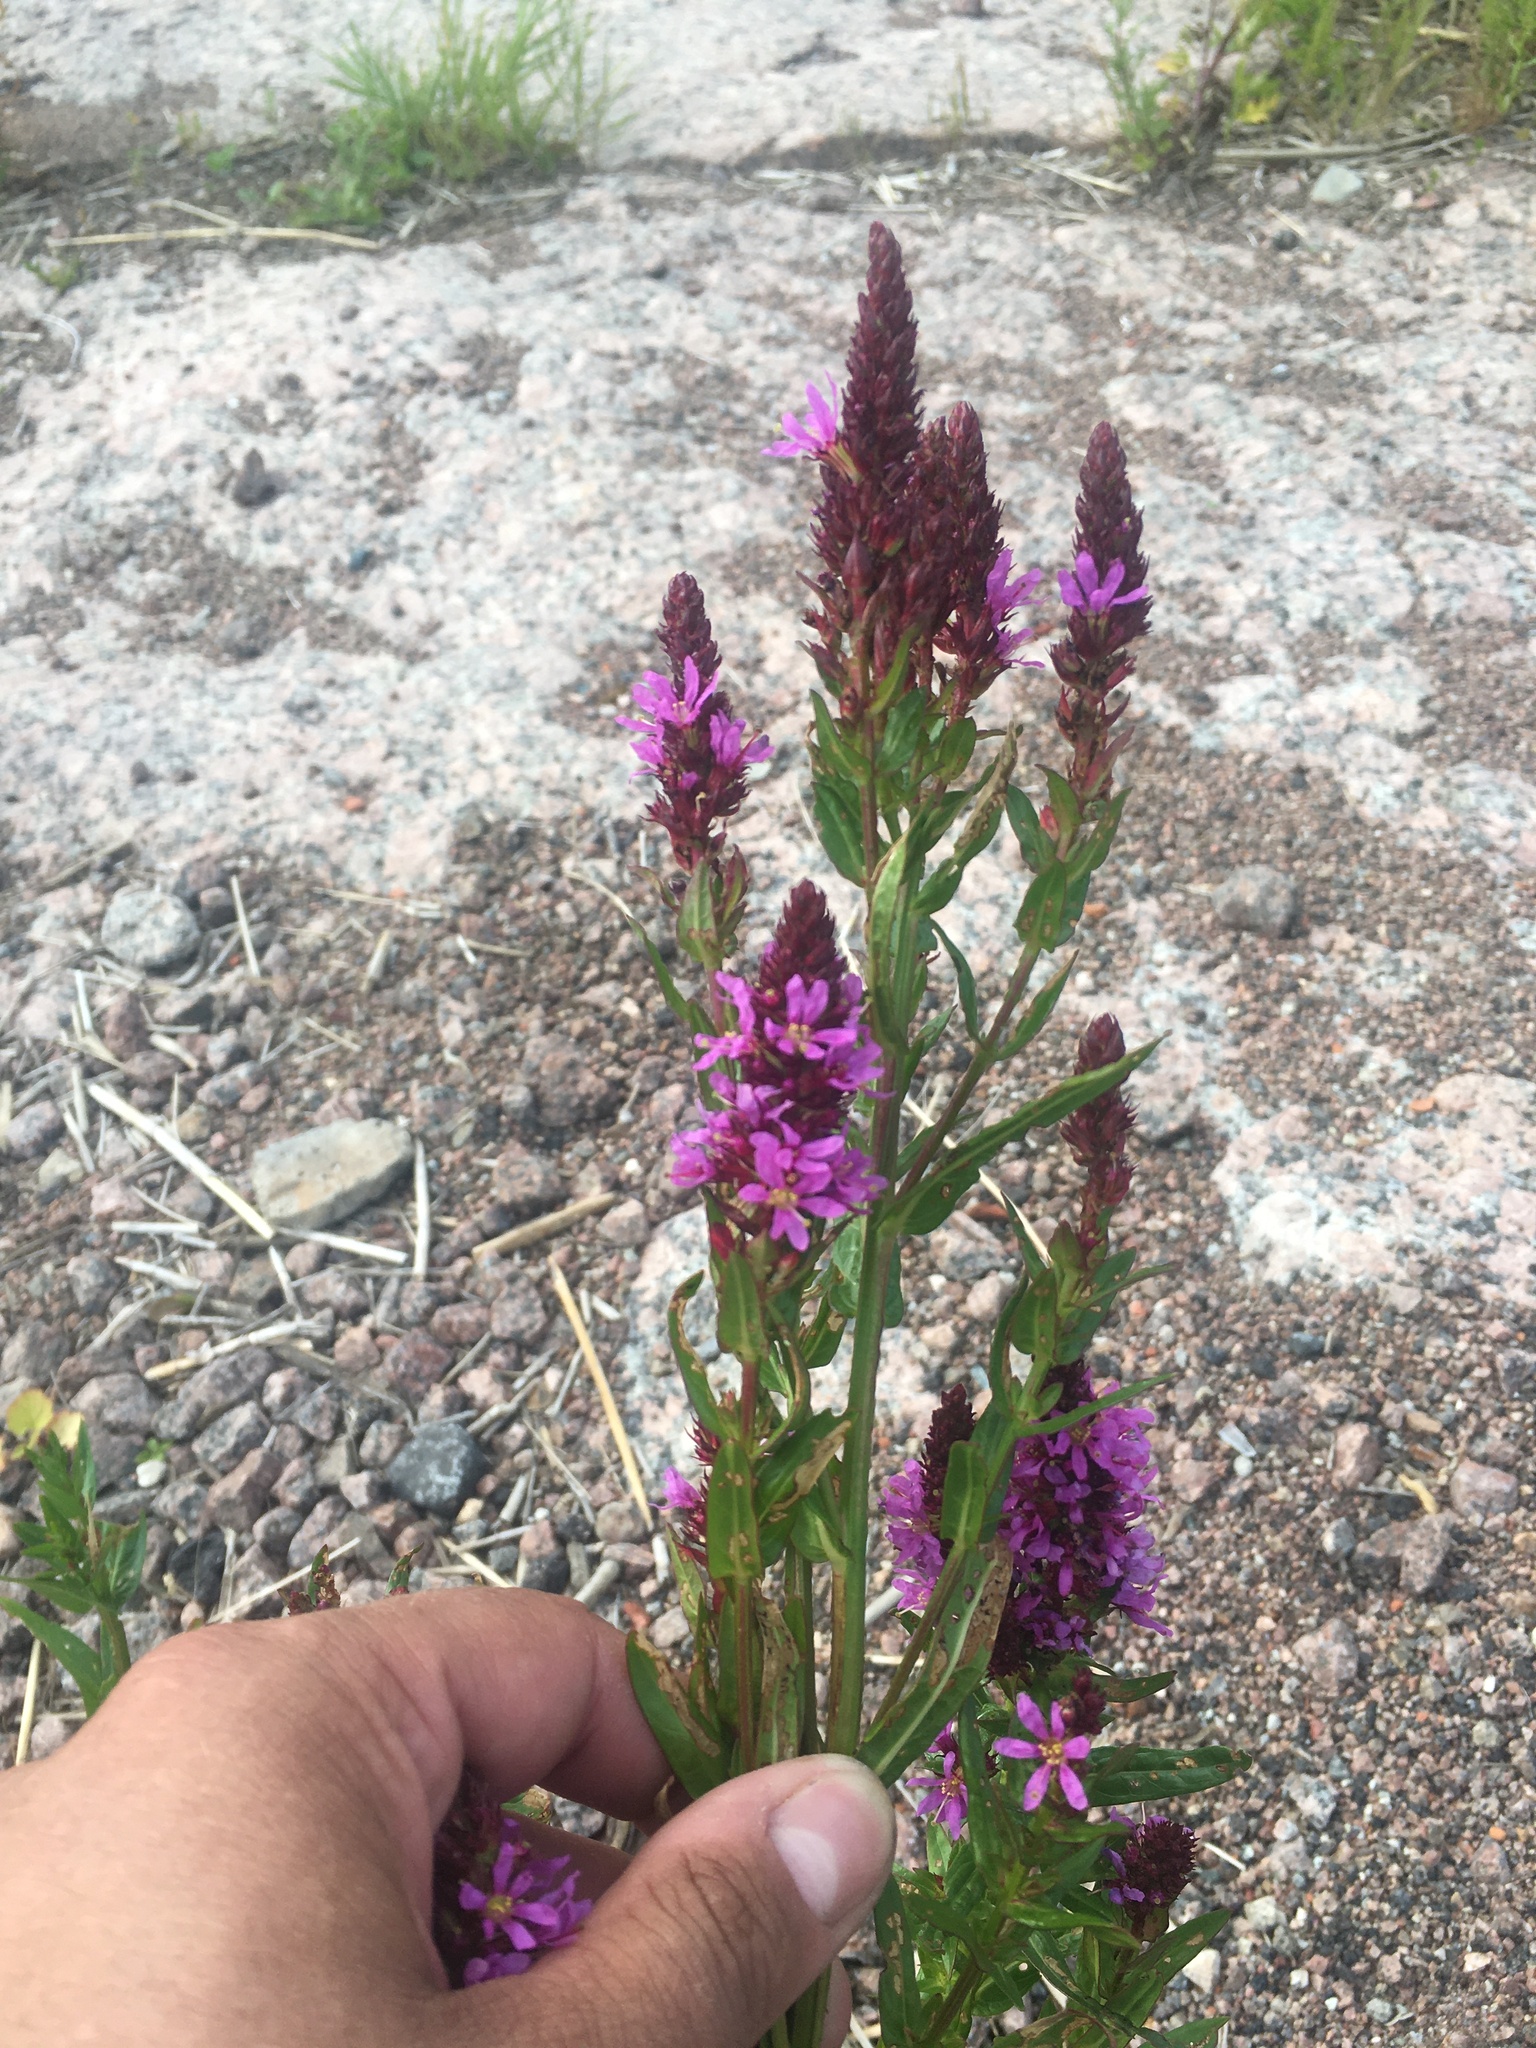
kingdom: Plantae
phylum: Tracheophyta
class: Magnoliopsida
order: Myrtales
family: Lythraceae
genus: Lythrum
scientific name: Lythrum salicaria
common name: Purple loosestrife
